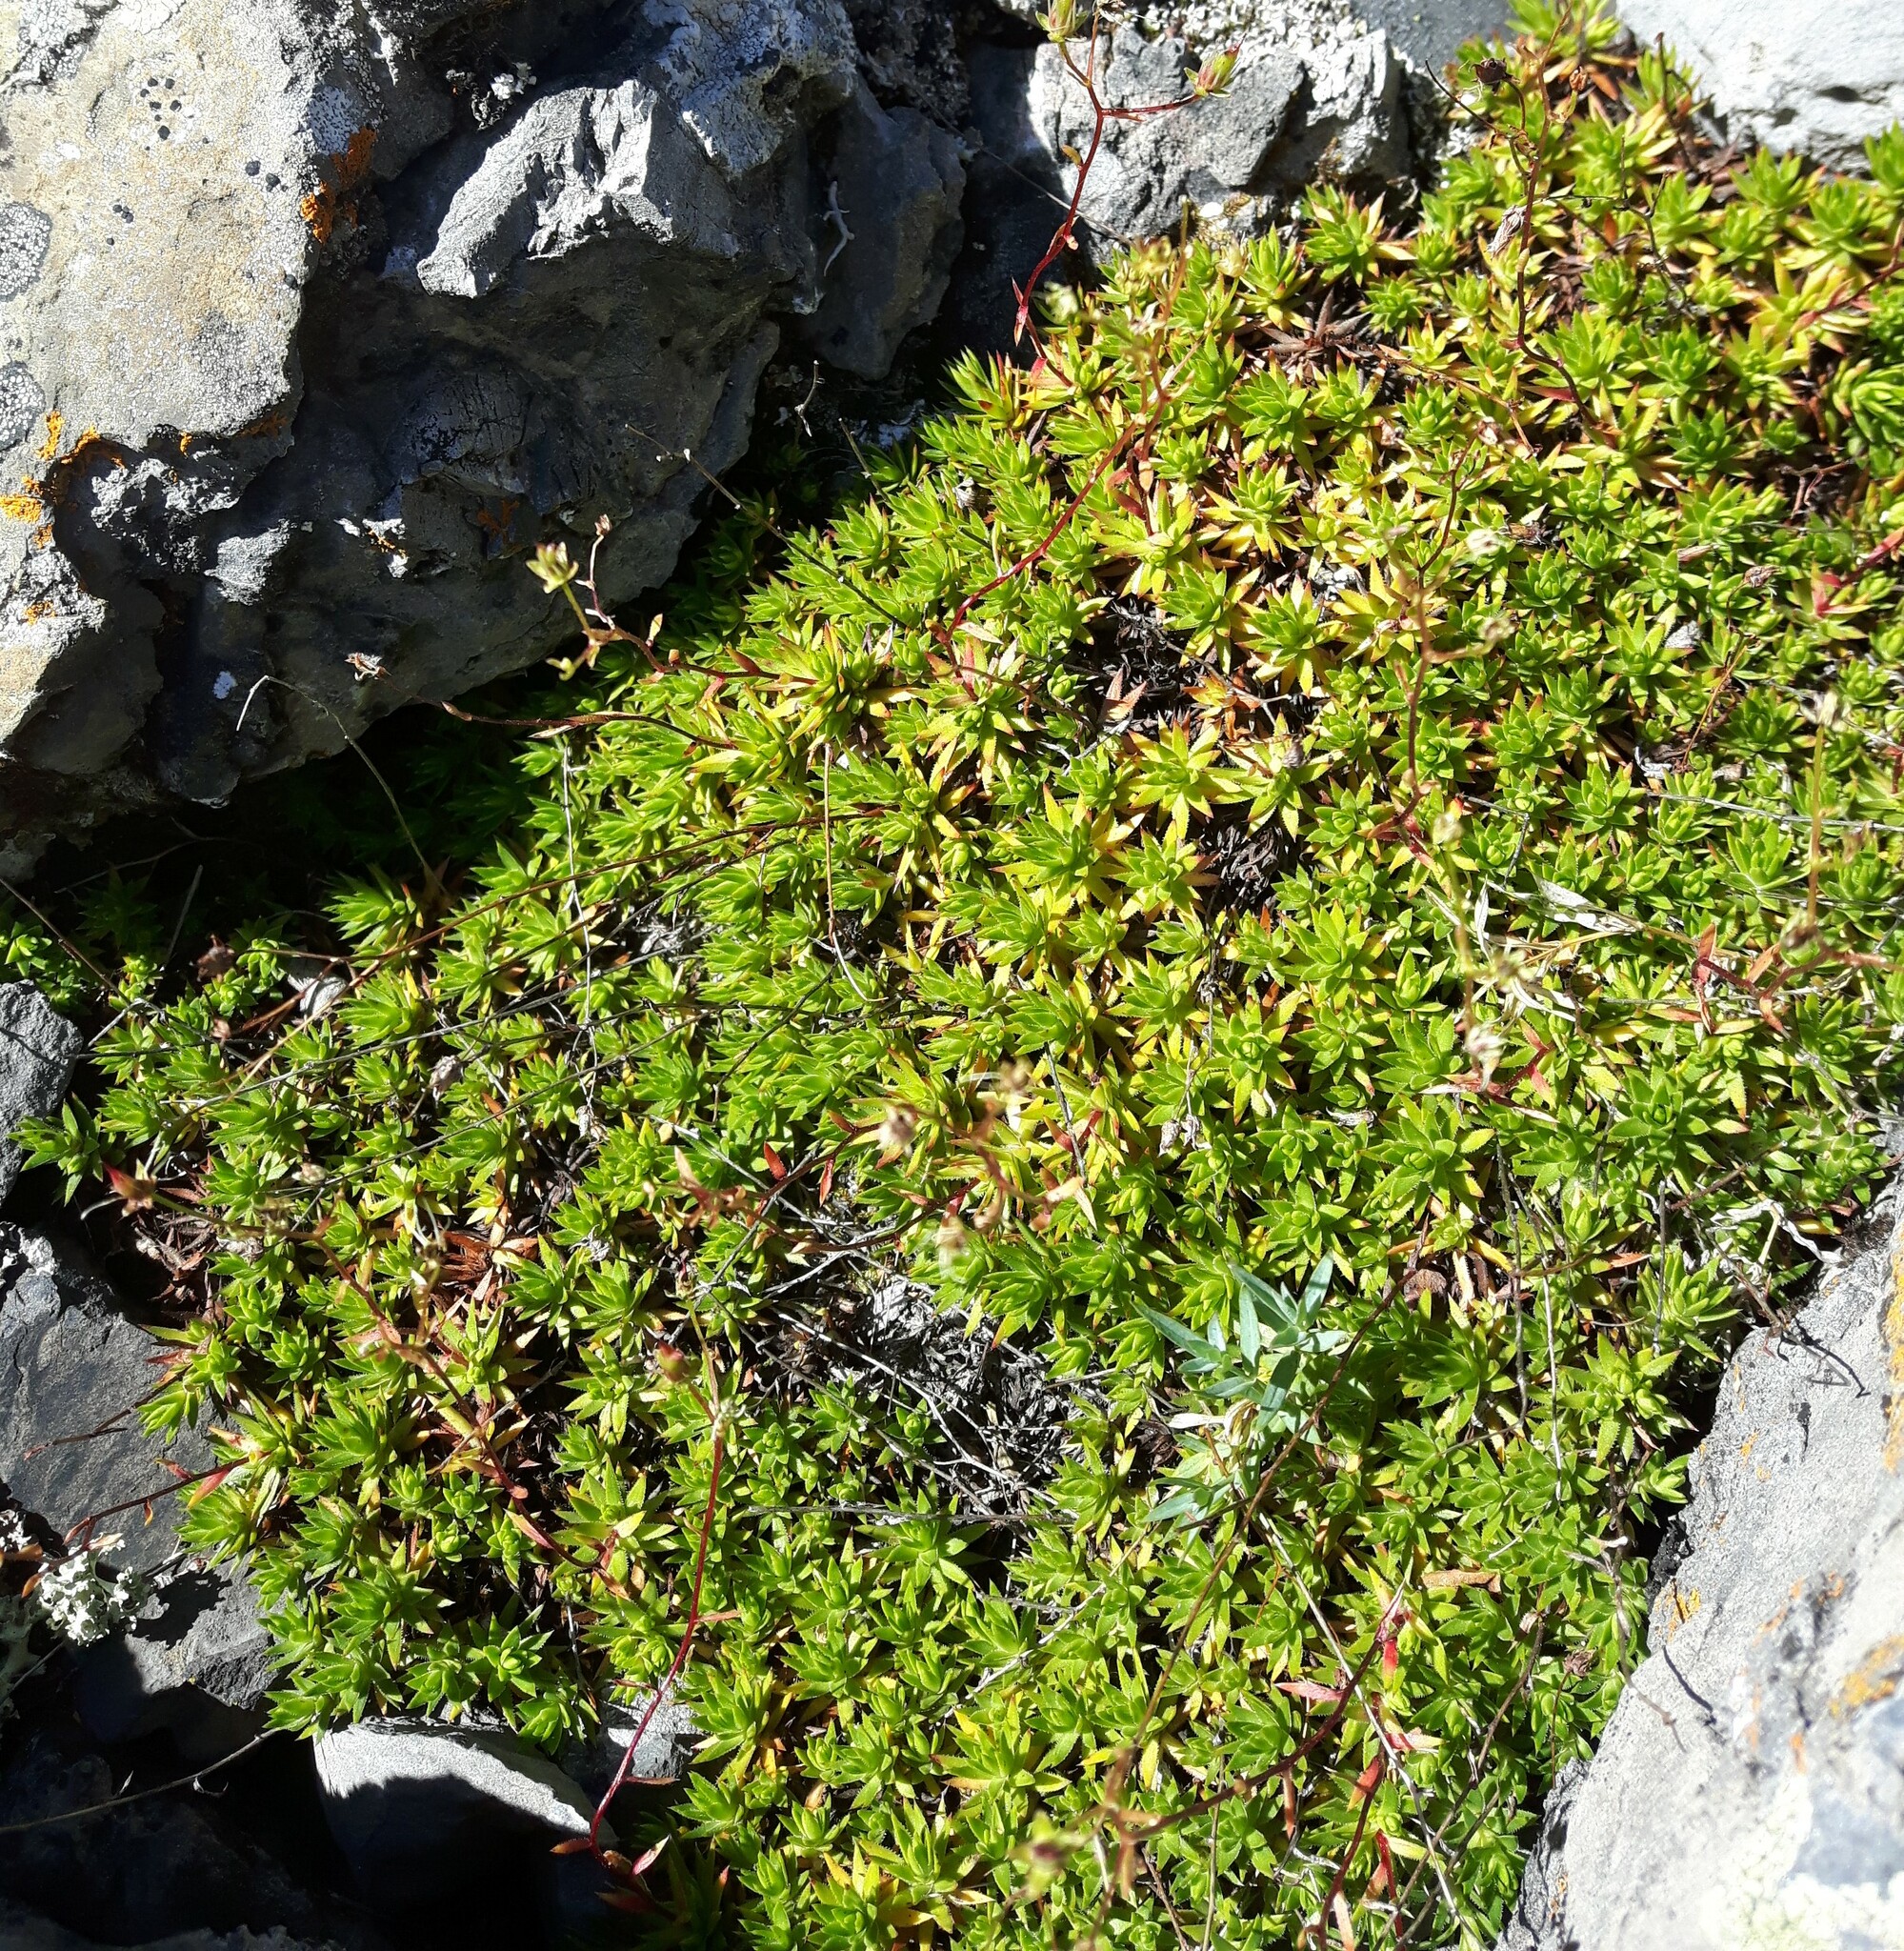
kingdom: Plantae
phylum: Tracheophyta
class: Magnoliopsida
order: Saxifragales
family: Saxifragaceae
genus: Saxifraga
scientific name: Saxifraga bronchialis
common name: Matted saxifrage
